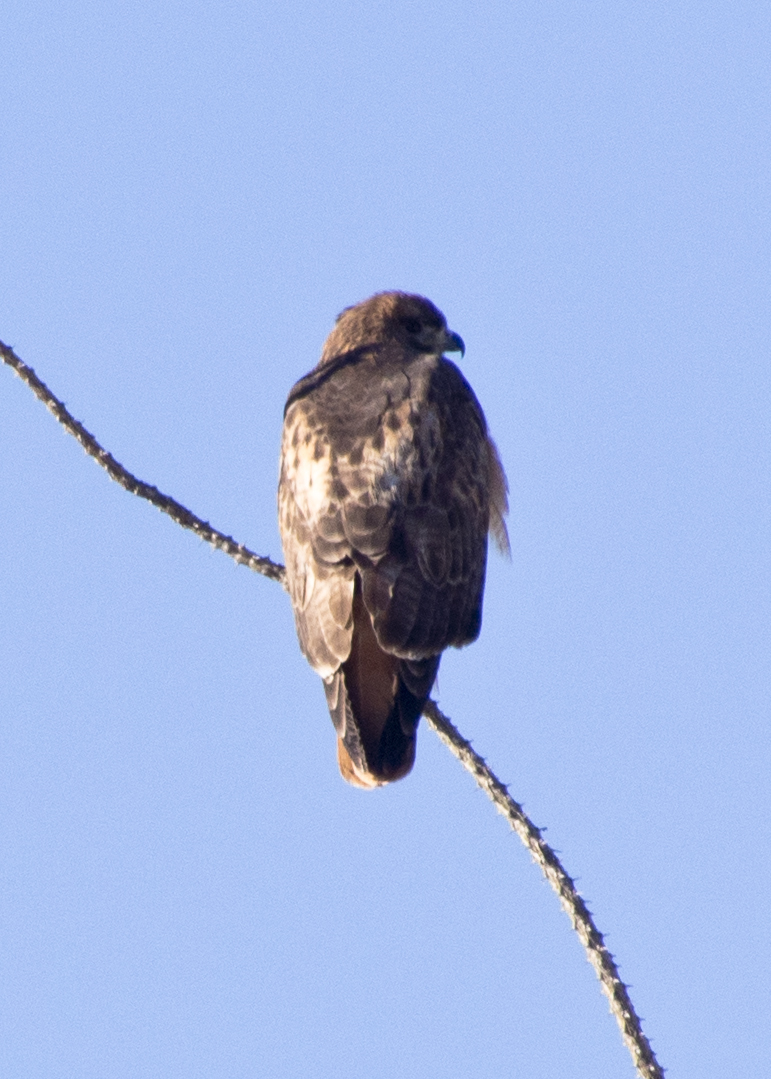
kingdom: Animalia
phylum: Chordata
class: Aves
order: Accipitriformes
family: Accipitridae
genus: Buteo
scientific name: Buteo jamaicensis
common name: Red-tailed hawk
